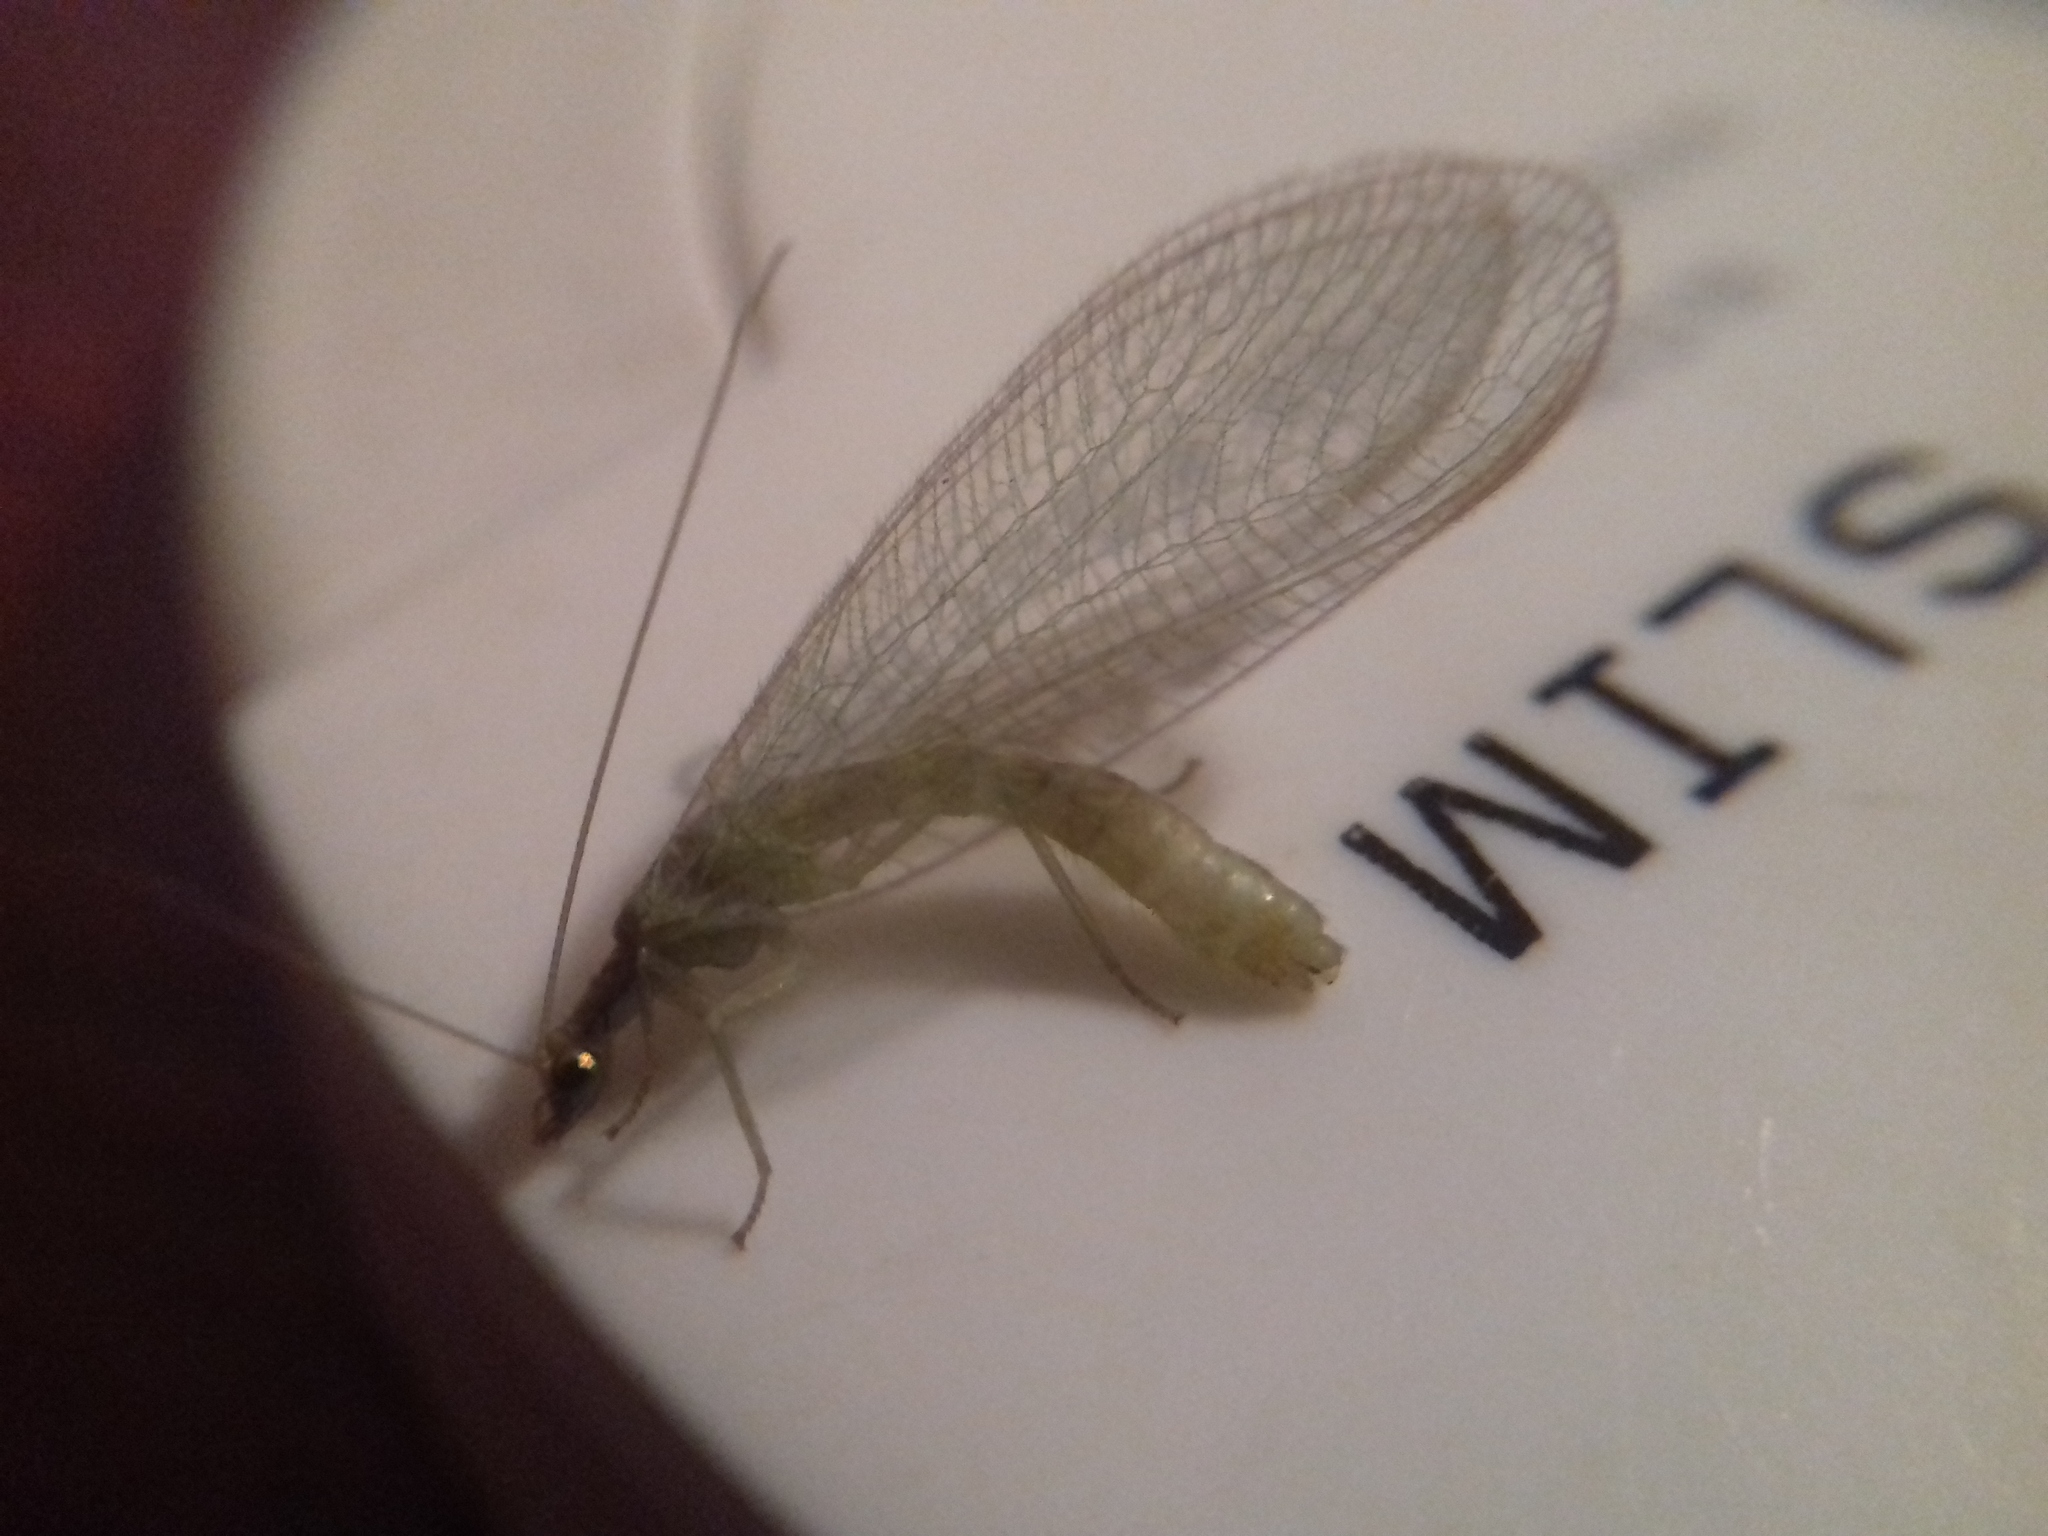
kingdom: Animalia
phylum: Arthropoda
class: Insecta
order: Neuroptera
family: Chrysopidae
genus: Chrysoperla
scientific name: Chrysoperla
